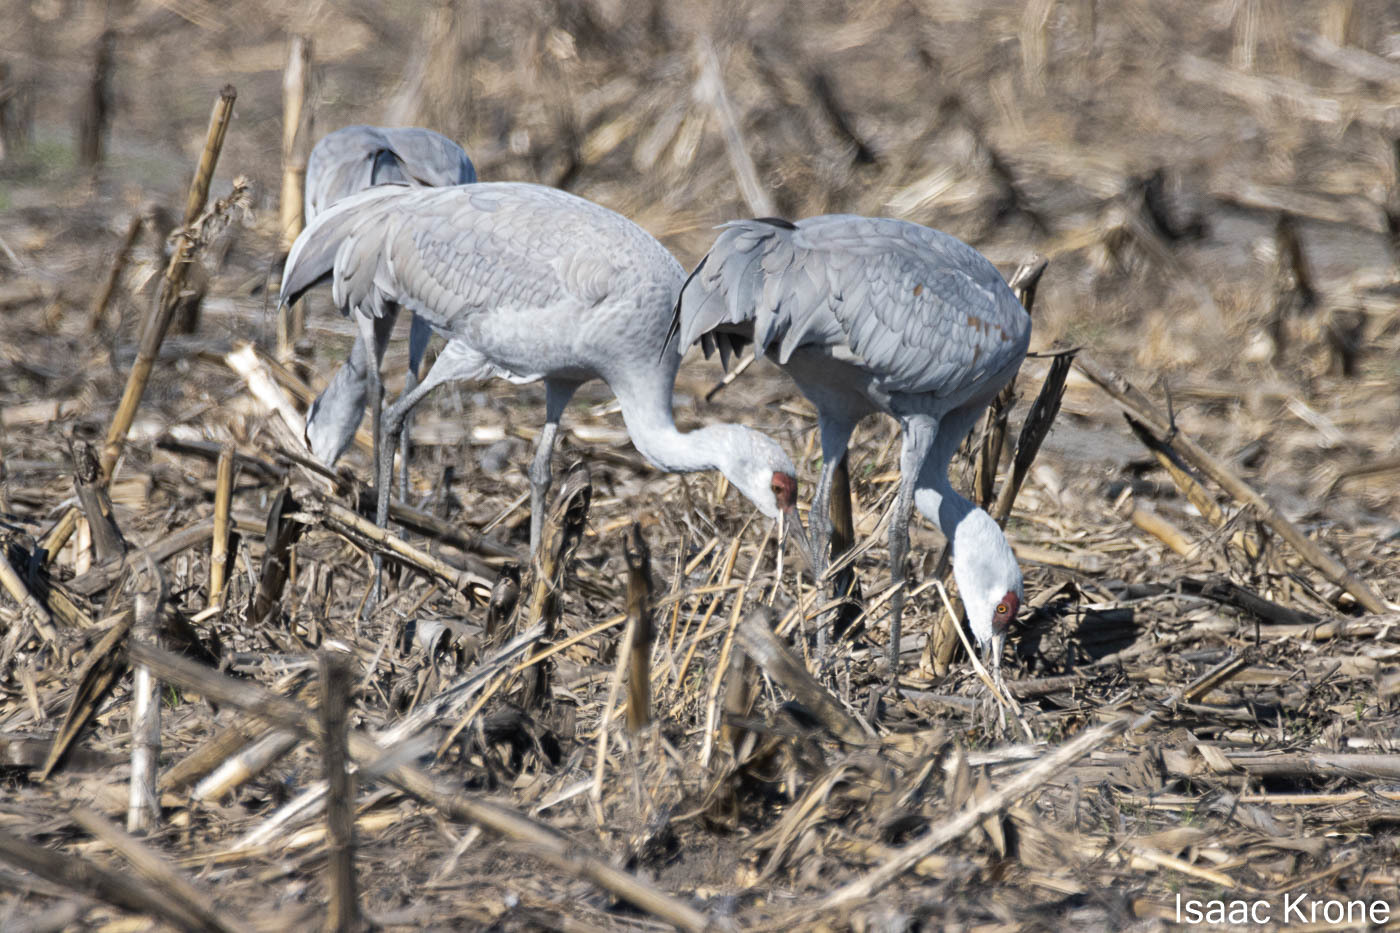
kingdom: Animalia
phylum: Chordata
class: Aves
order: Gruiformes
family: Gruidae
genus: Grus
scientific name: Grus canadensis
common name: Sandhill crane
